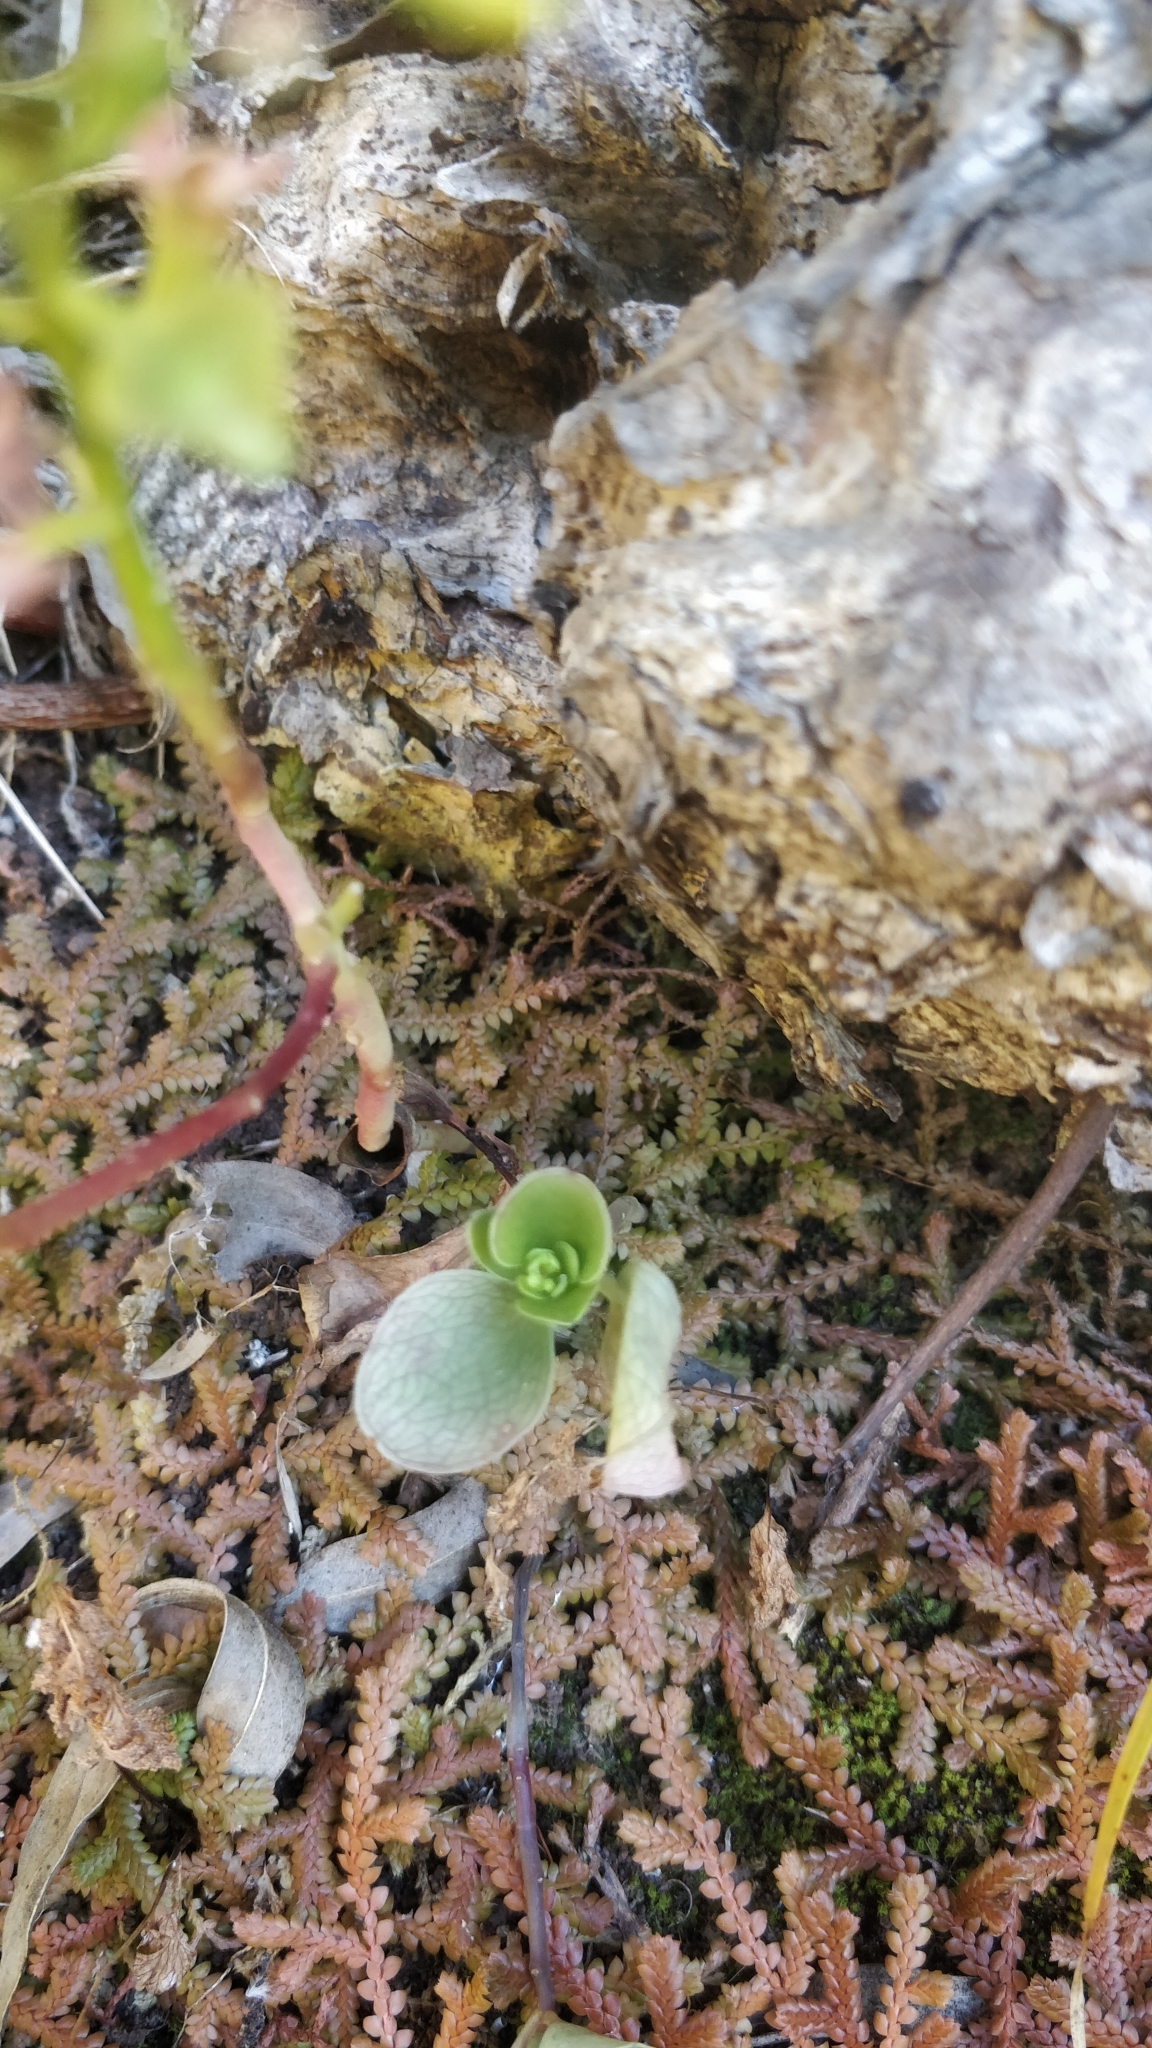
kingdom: Plantae
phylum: Tracheophyta
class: Magnoliopsida
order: Saxifragales
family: Crassulaceae
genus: Aichryson
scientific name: Aichryson divaricatum
